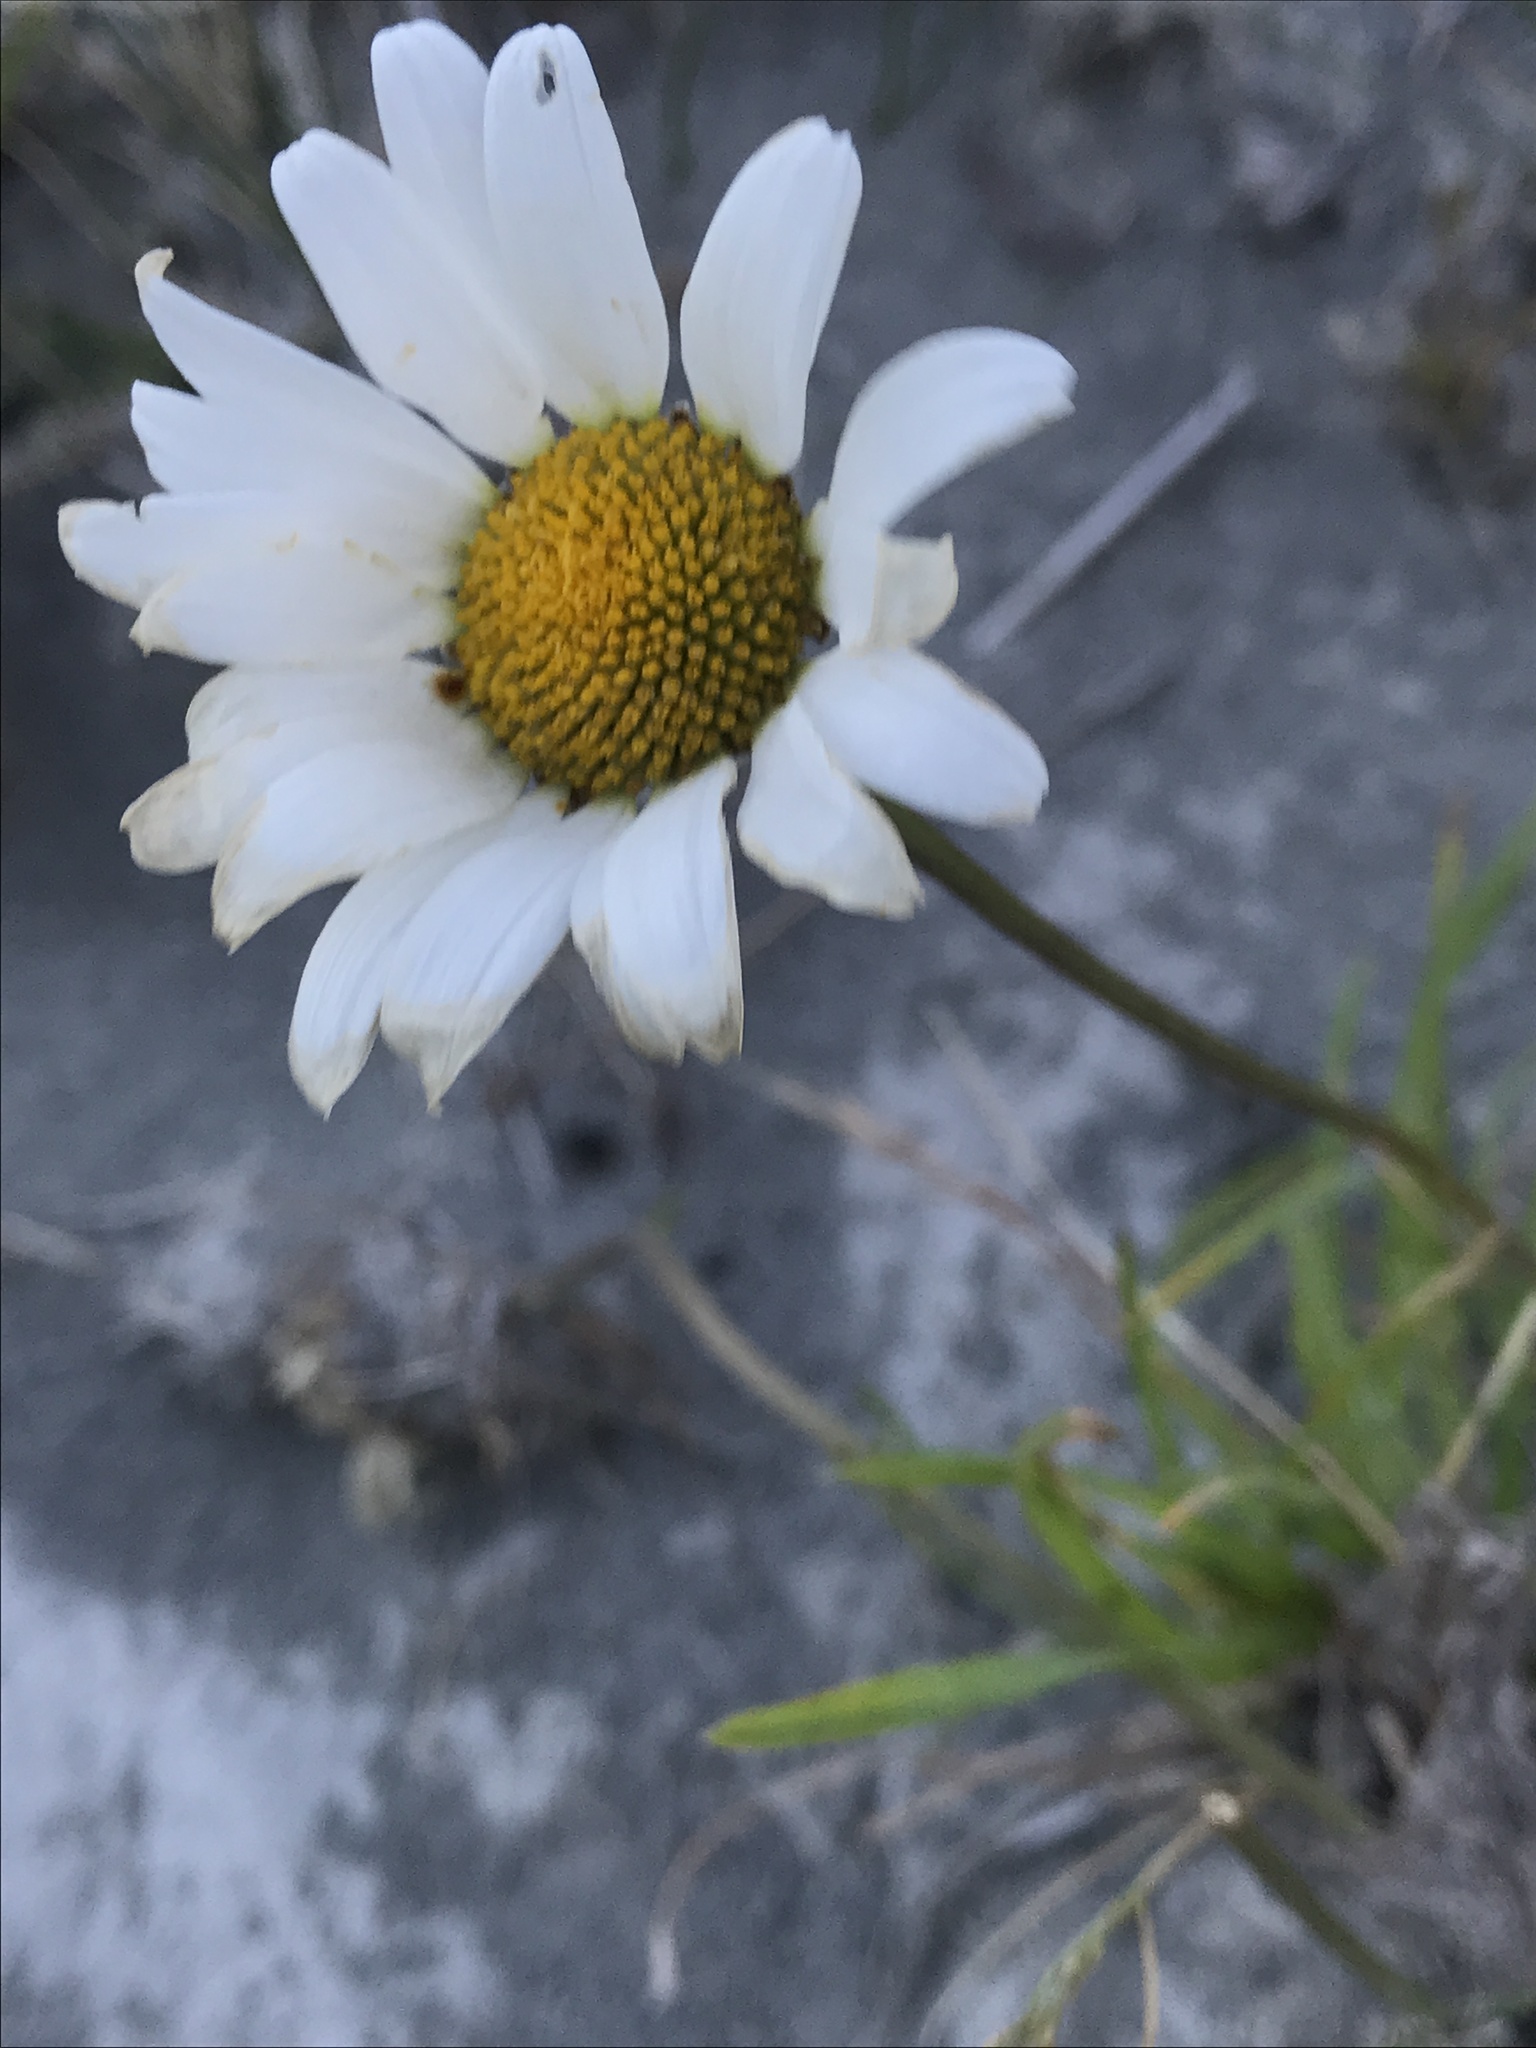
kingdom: Plantae
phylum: Tracheophyta
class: Magnoliopsida
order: Asterales
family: Asteraceae
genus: Leucanthemum
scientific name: Leucanthemum vulgare
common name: Oxeye daisy
